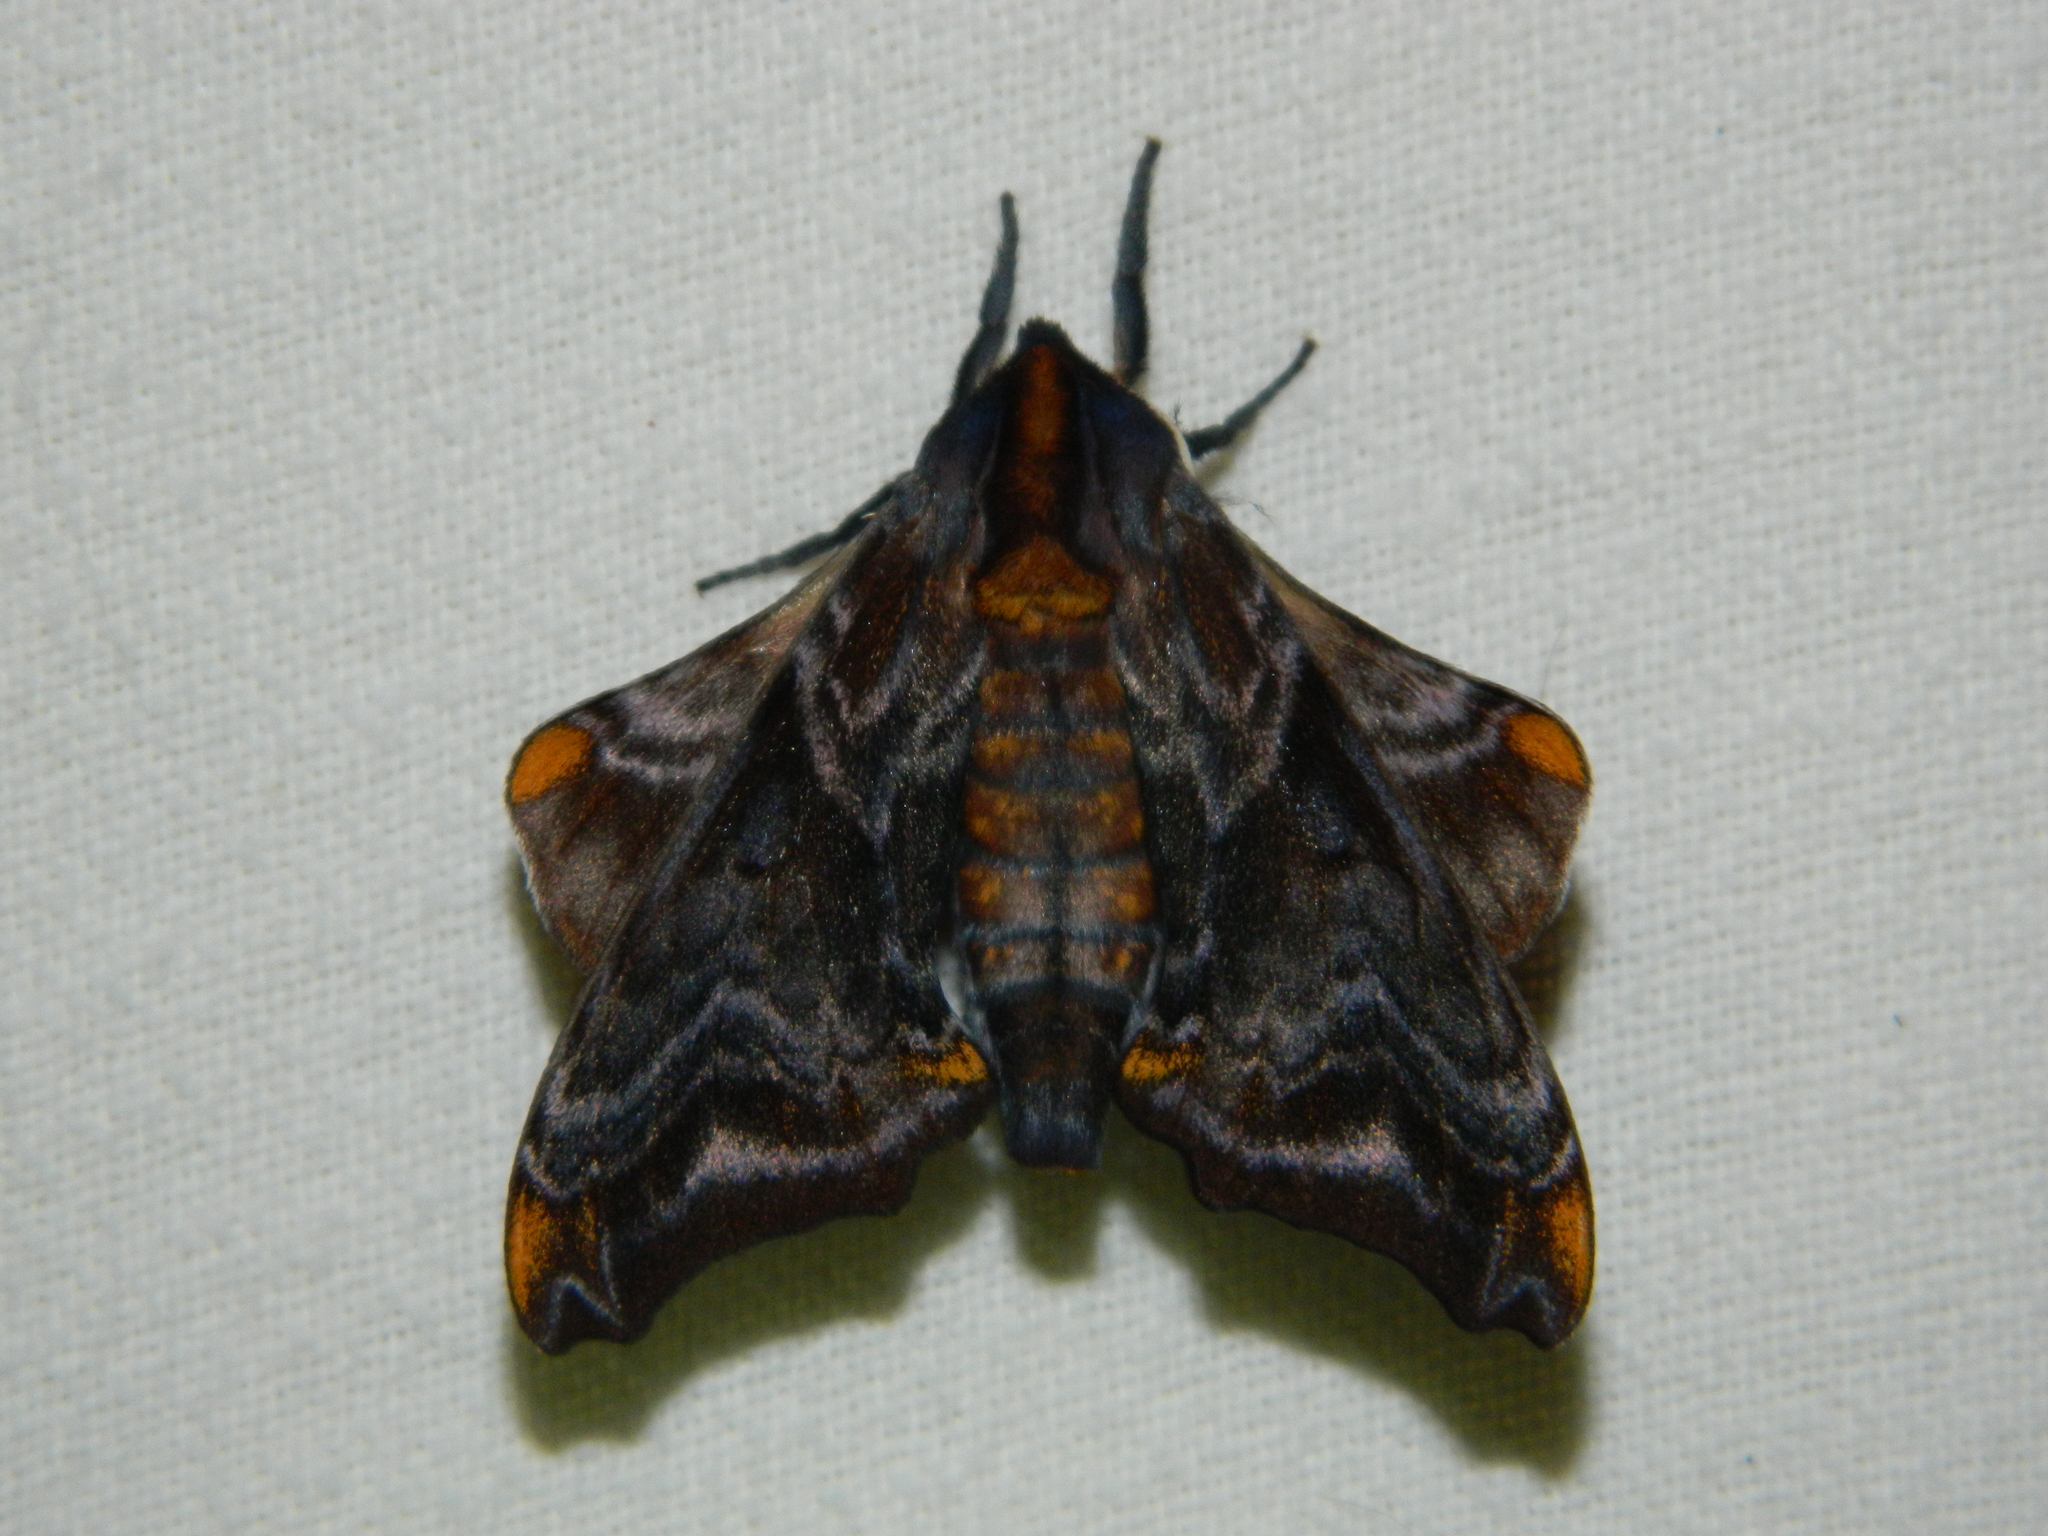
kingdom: Animalia
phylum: Arthropoda
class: Insecta
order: Lepidoptera
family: Sphingidae
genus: Paonias
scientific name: Paonias myops
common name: Small-eyed sphinx
